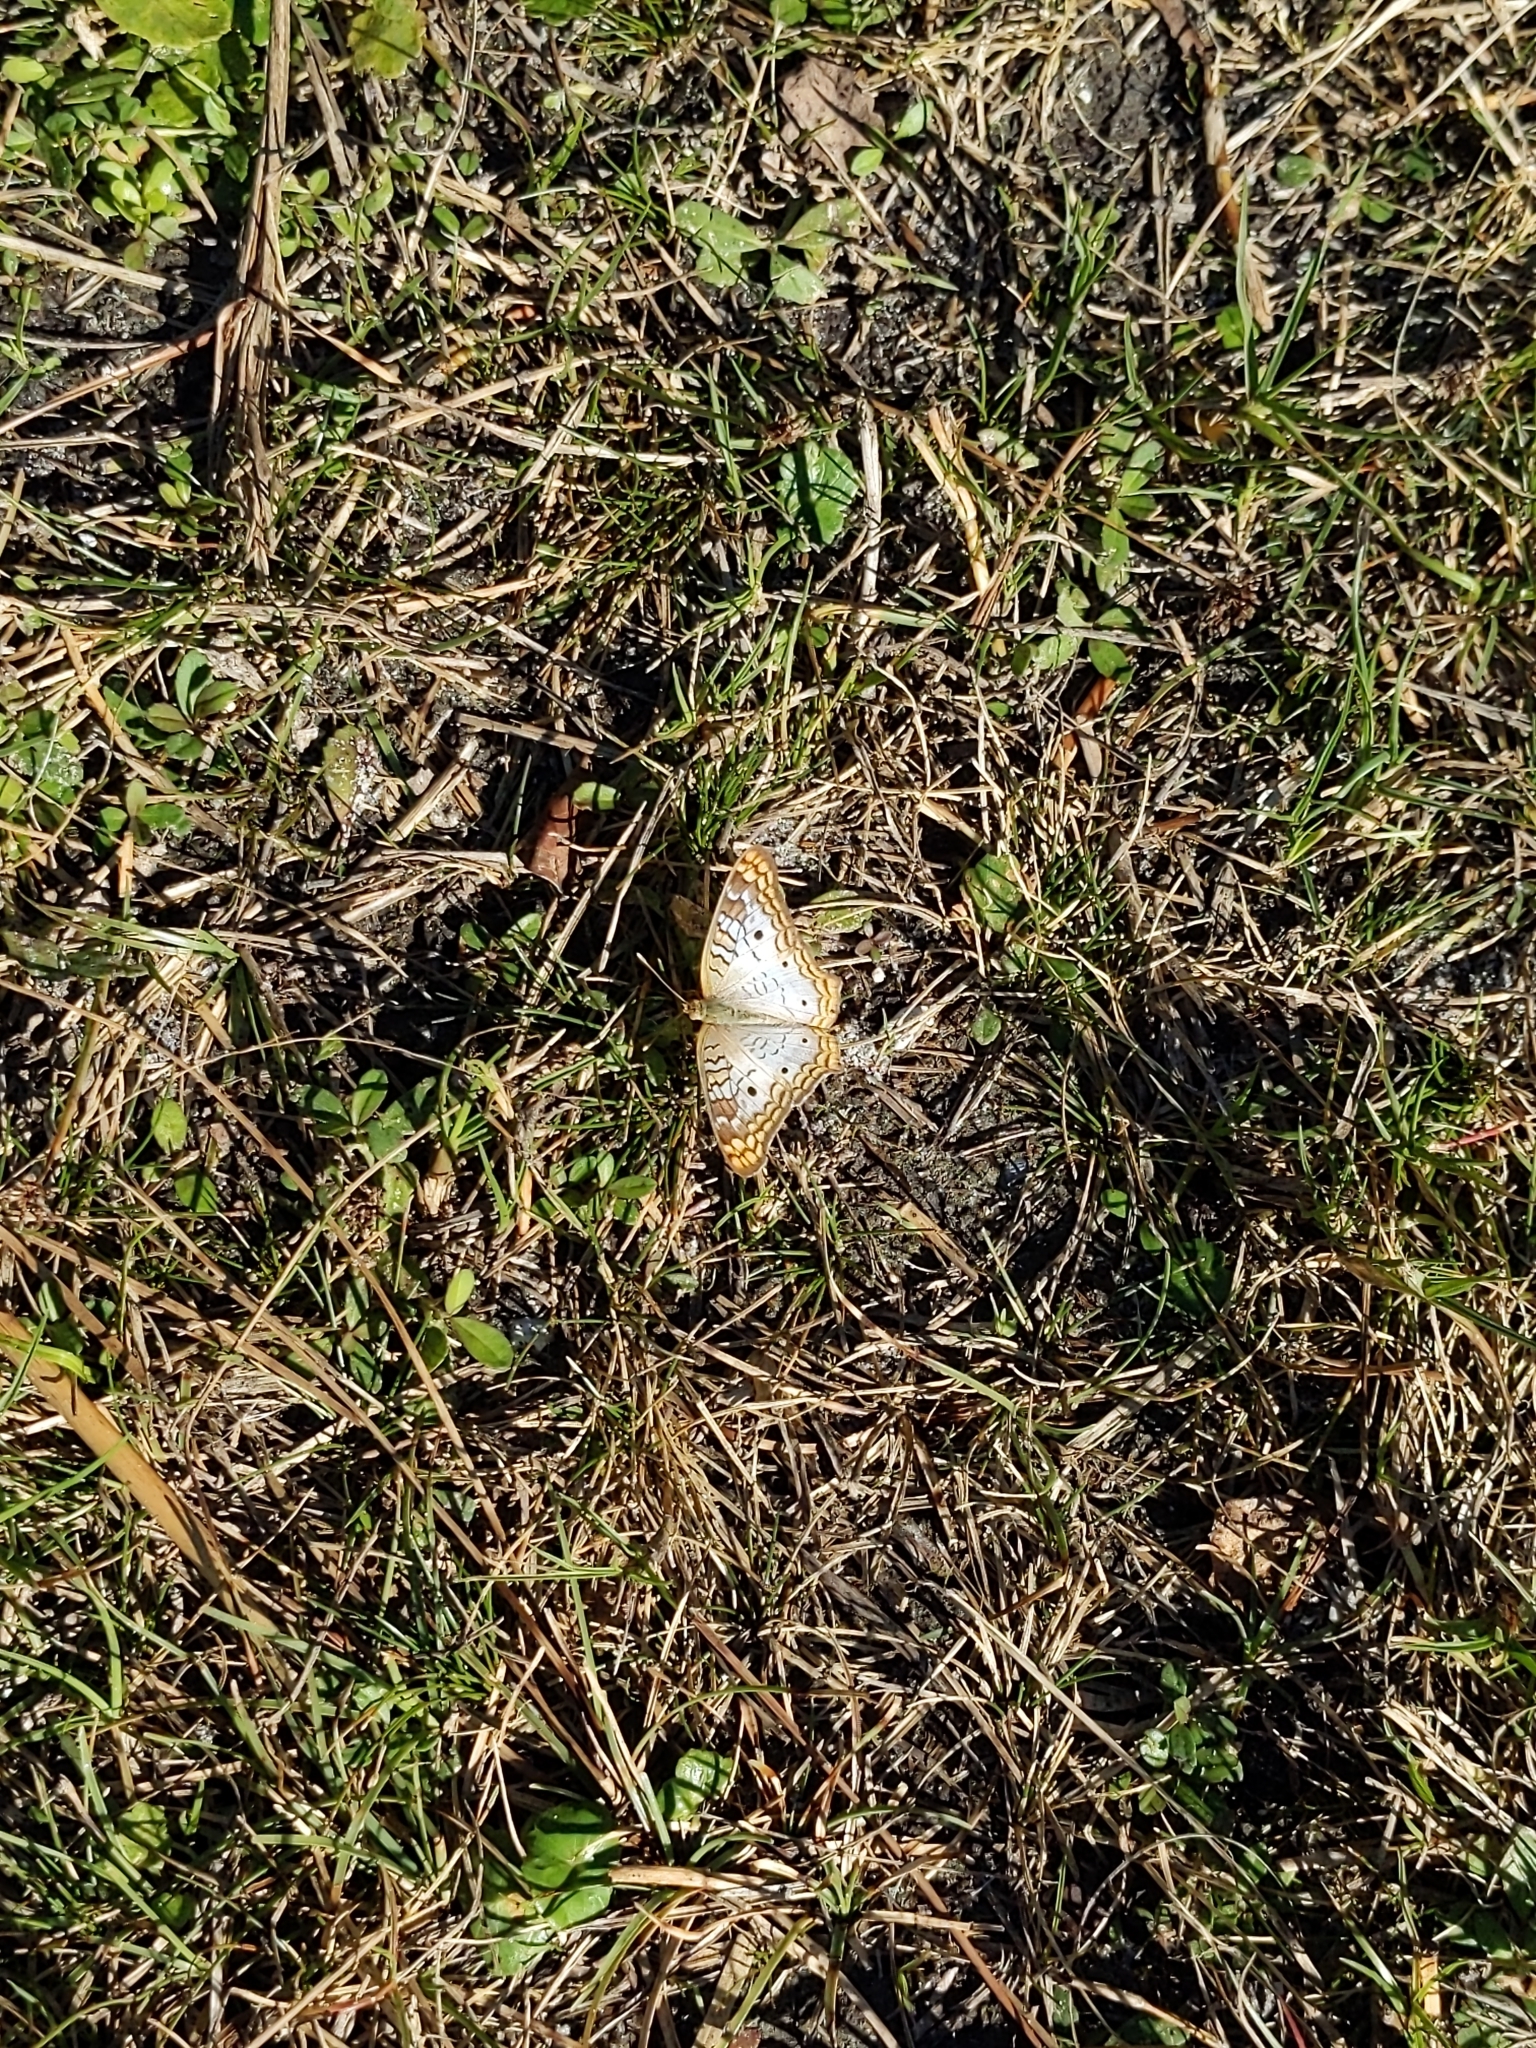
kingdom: Animalia
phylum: Arthropoda
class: Insecta
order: Lepidoptera
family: Nymphalidae
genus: Anartia
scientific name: Anartia jatrophae
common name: White peacock
